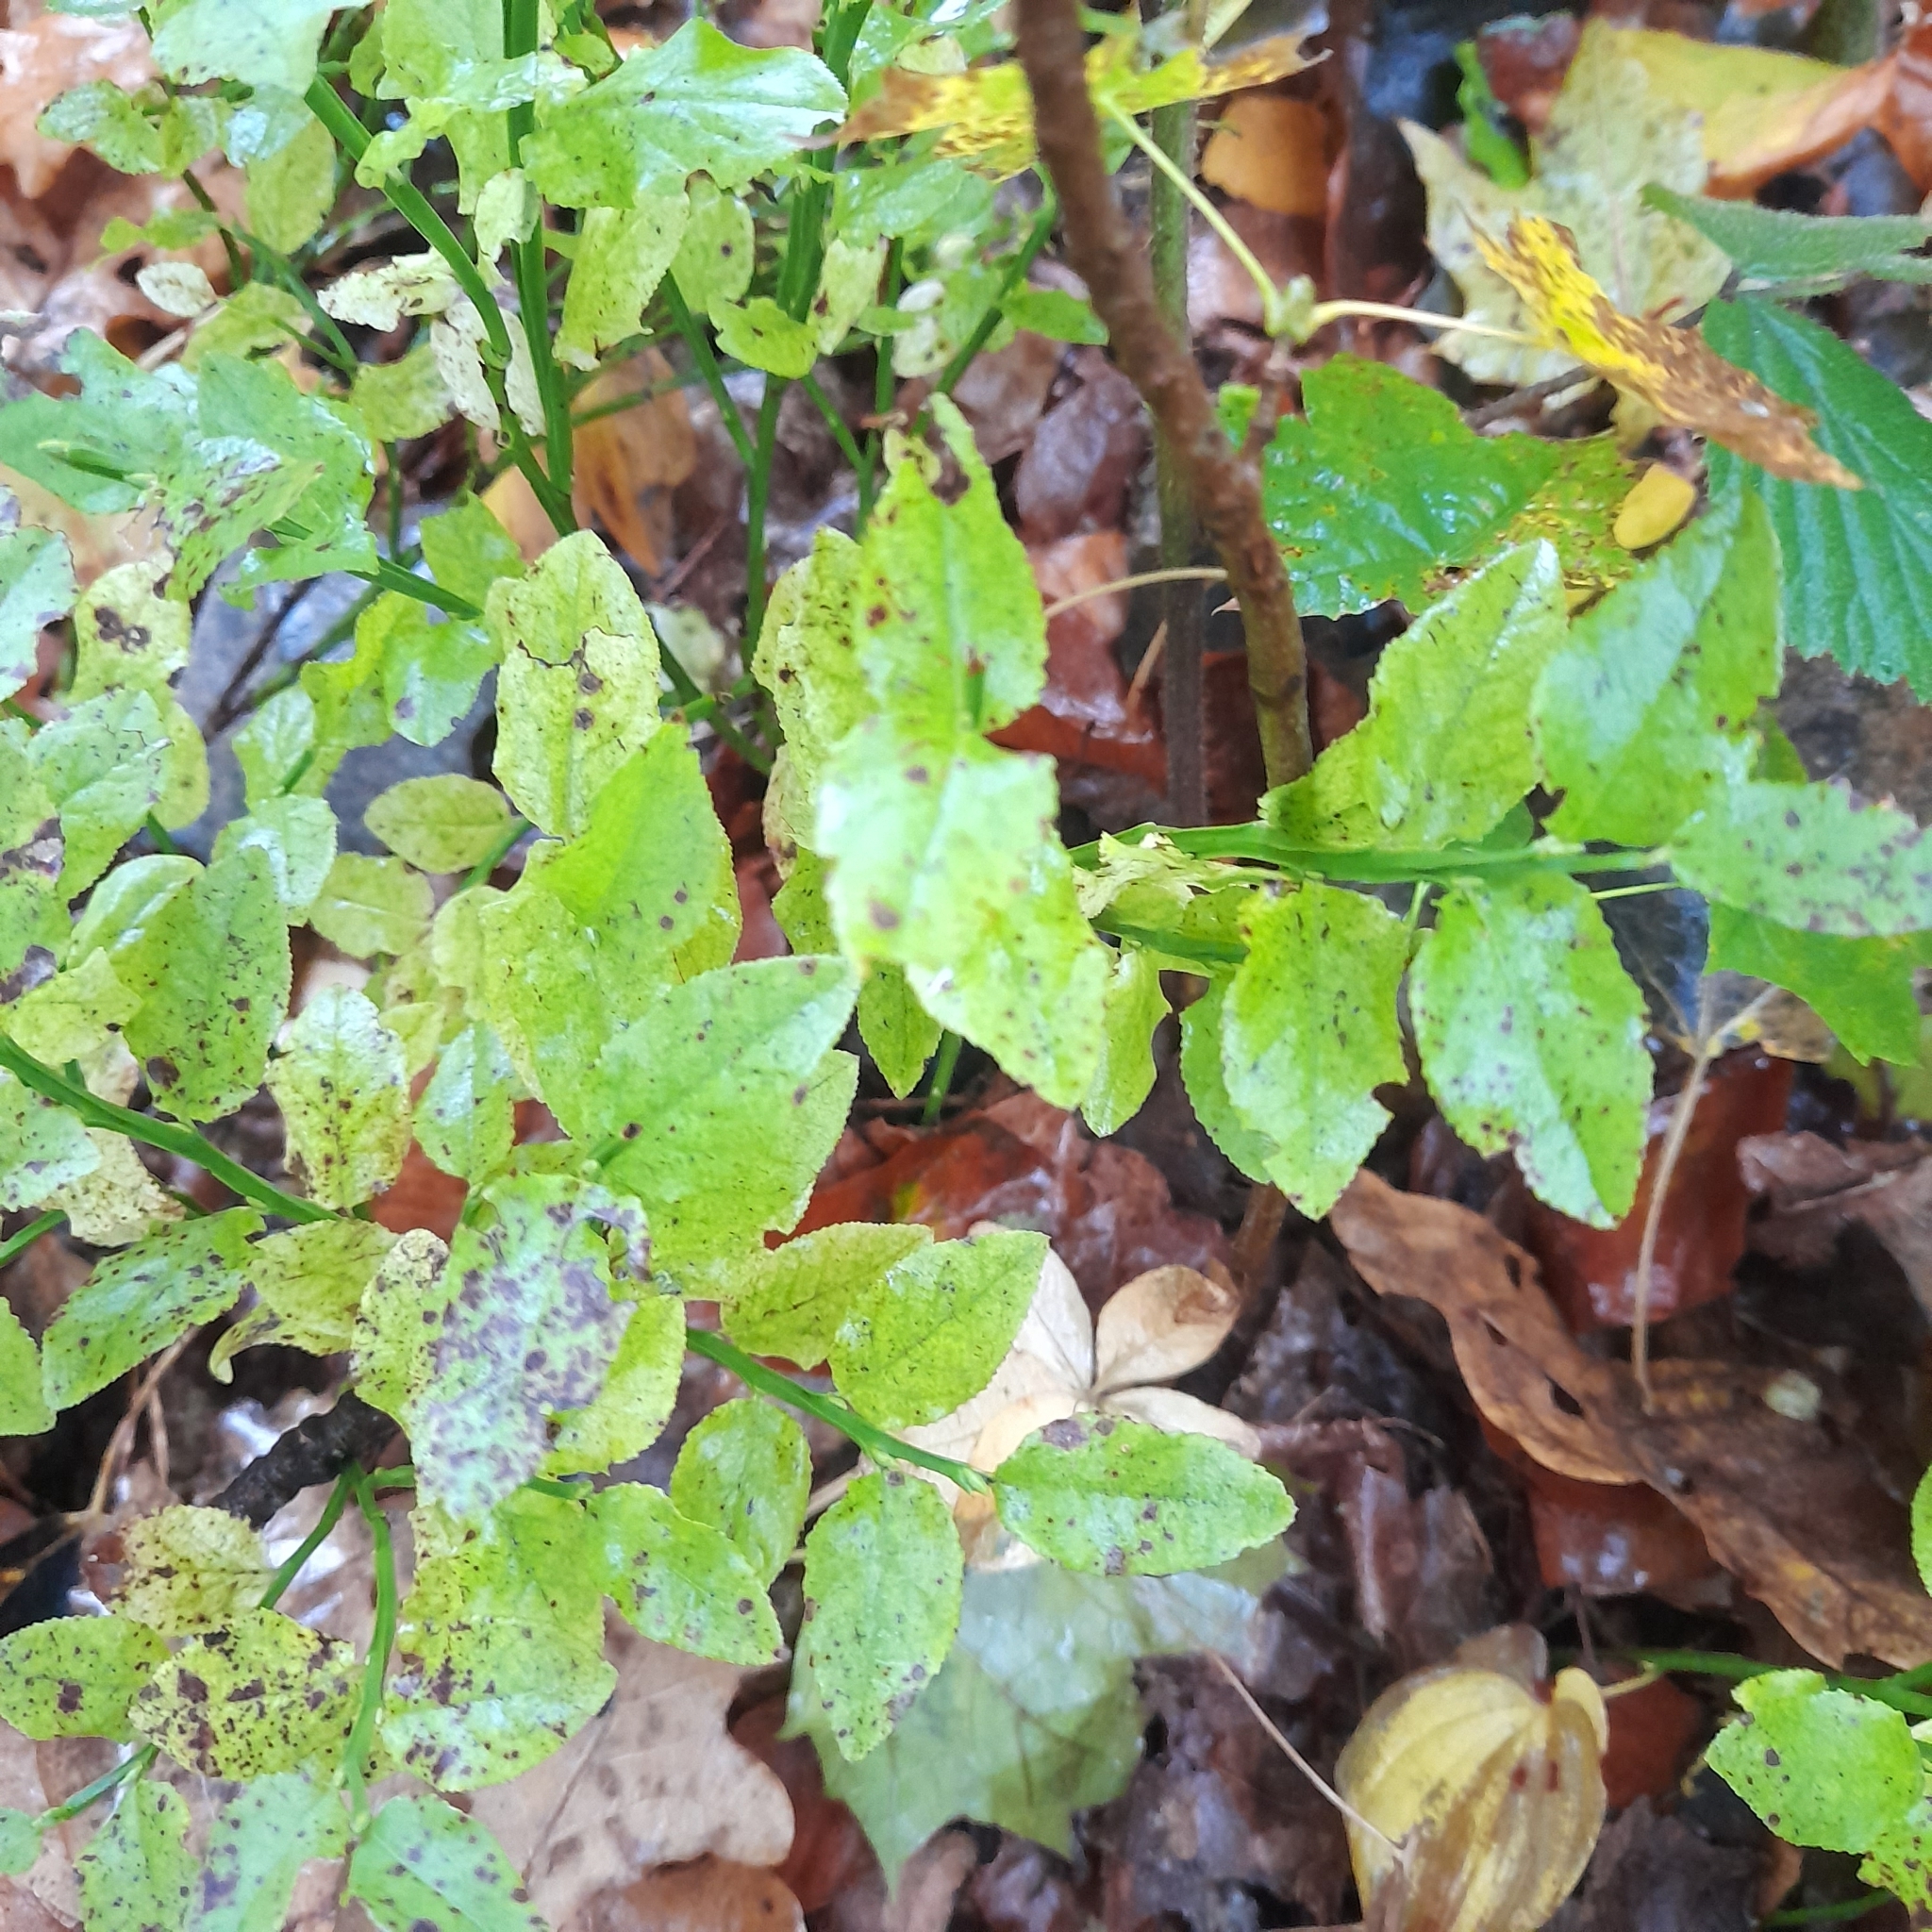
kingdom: Plantae
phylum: Tracheophyta
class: Magnoliopsida
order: Ericales
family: Ericaceae
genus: Vaccinium
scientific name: Vaccinium myrtillus
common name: Bilberry
